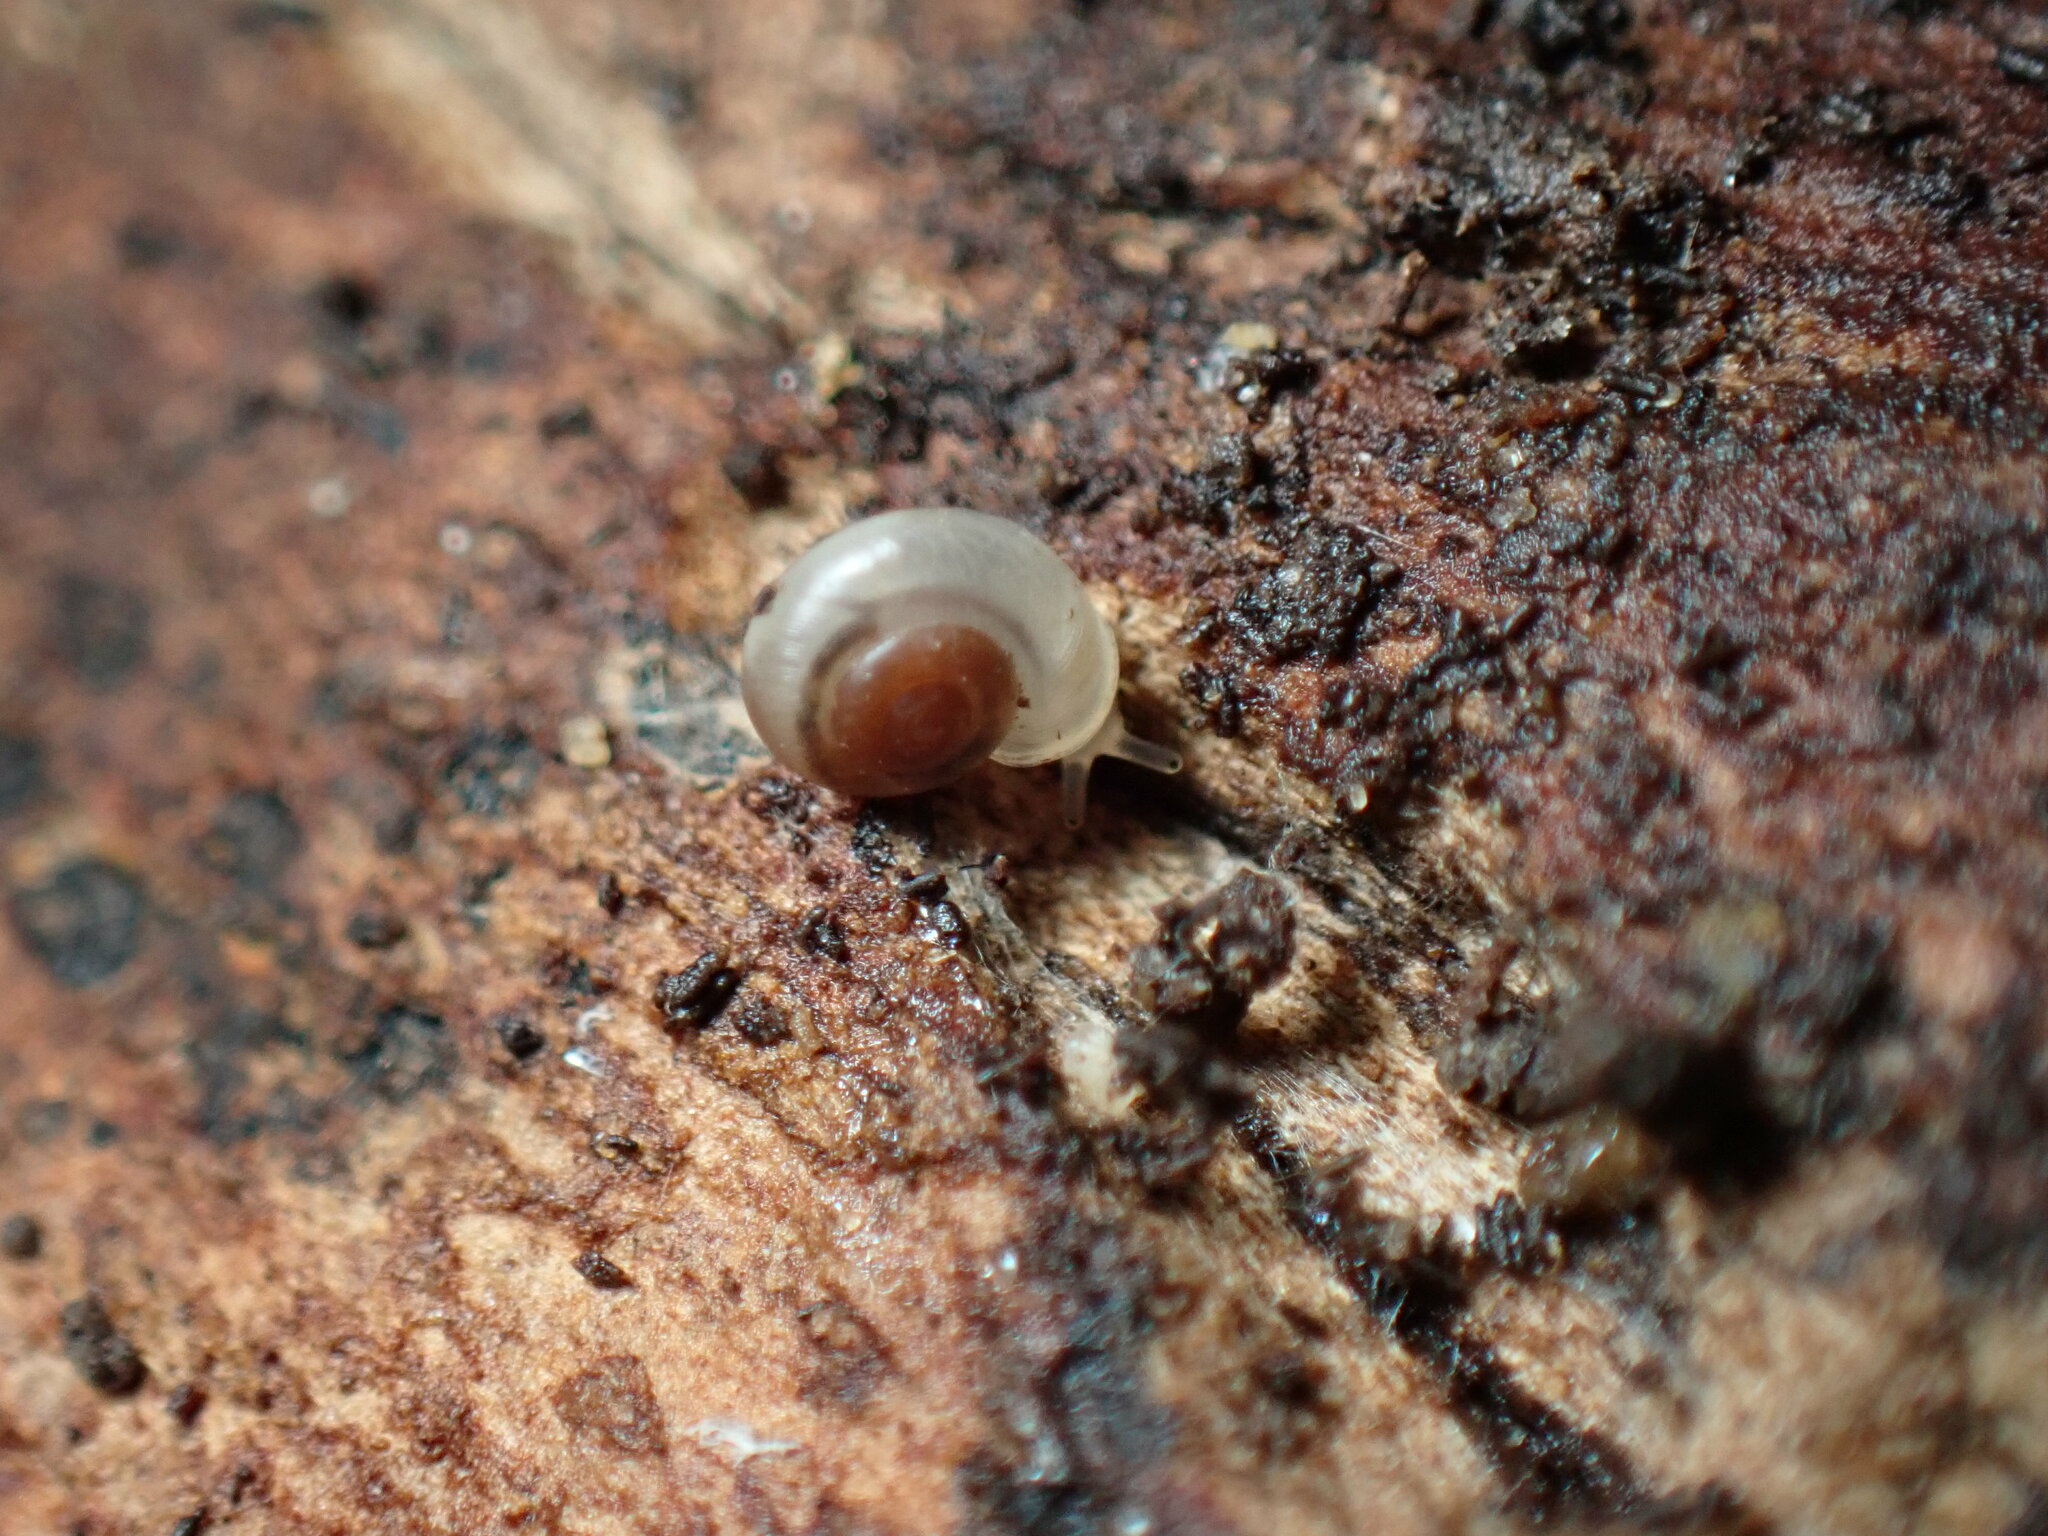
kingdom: Animalia
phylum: Mollusca
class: Gastropoda
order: Stylommatophora
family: Valloniidae
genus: Vallonia
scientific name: Vallonia pulchella
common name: Smooth grass snail
